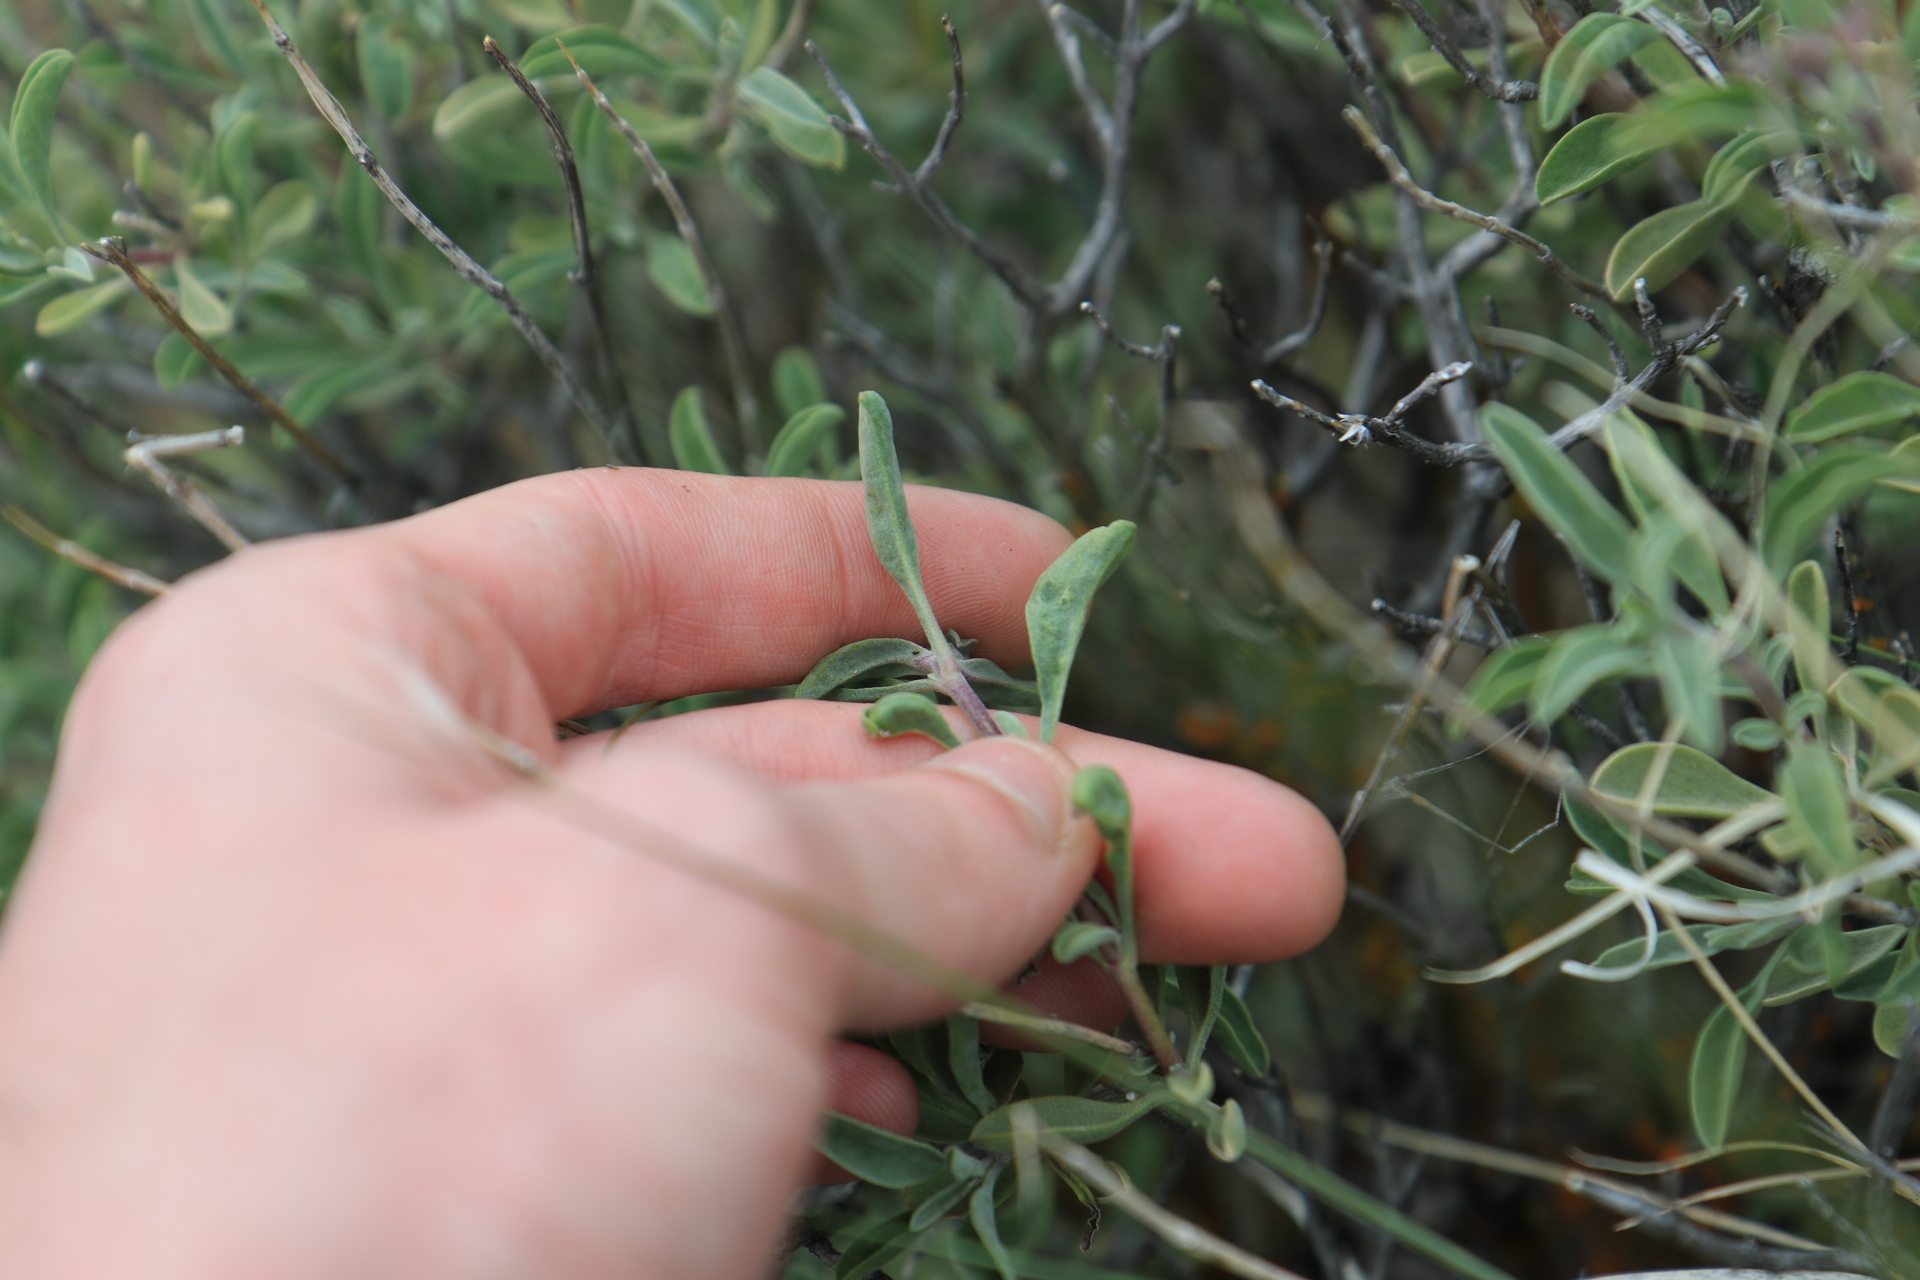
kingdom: Plantae
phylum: Tracheophyta
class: Magnoliopsida
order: Lamiales
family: Lamiaceae
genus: Salvia
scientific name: Salvia dorrii
